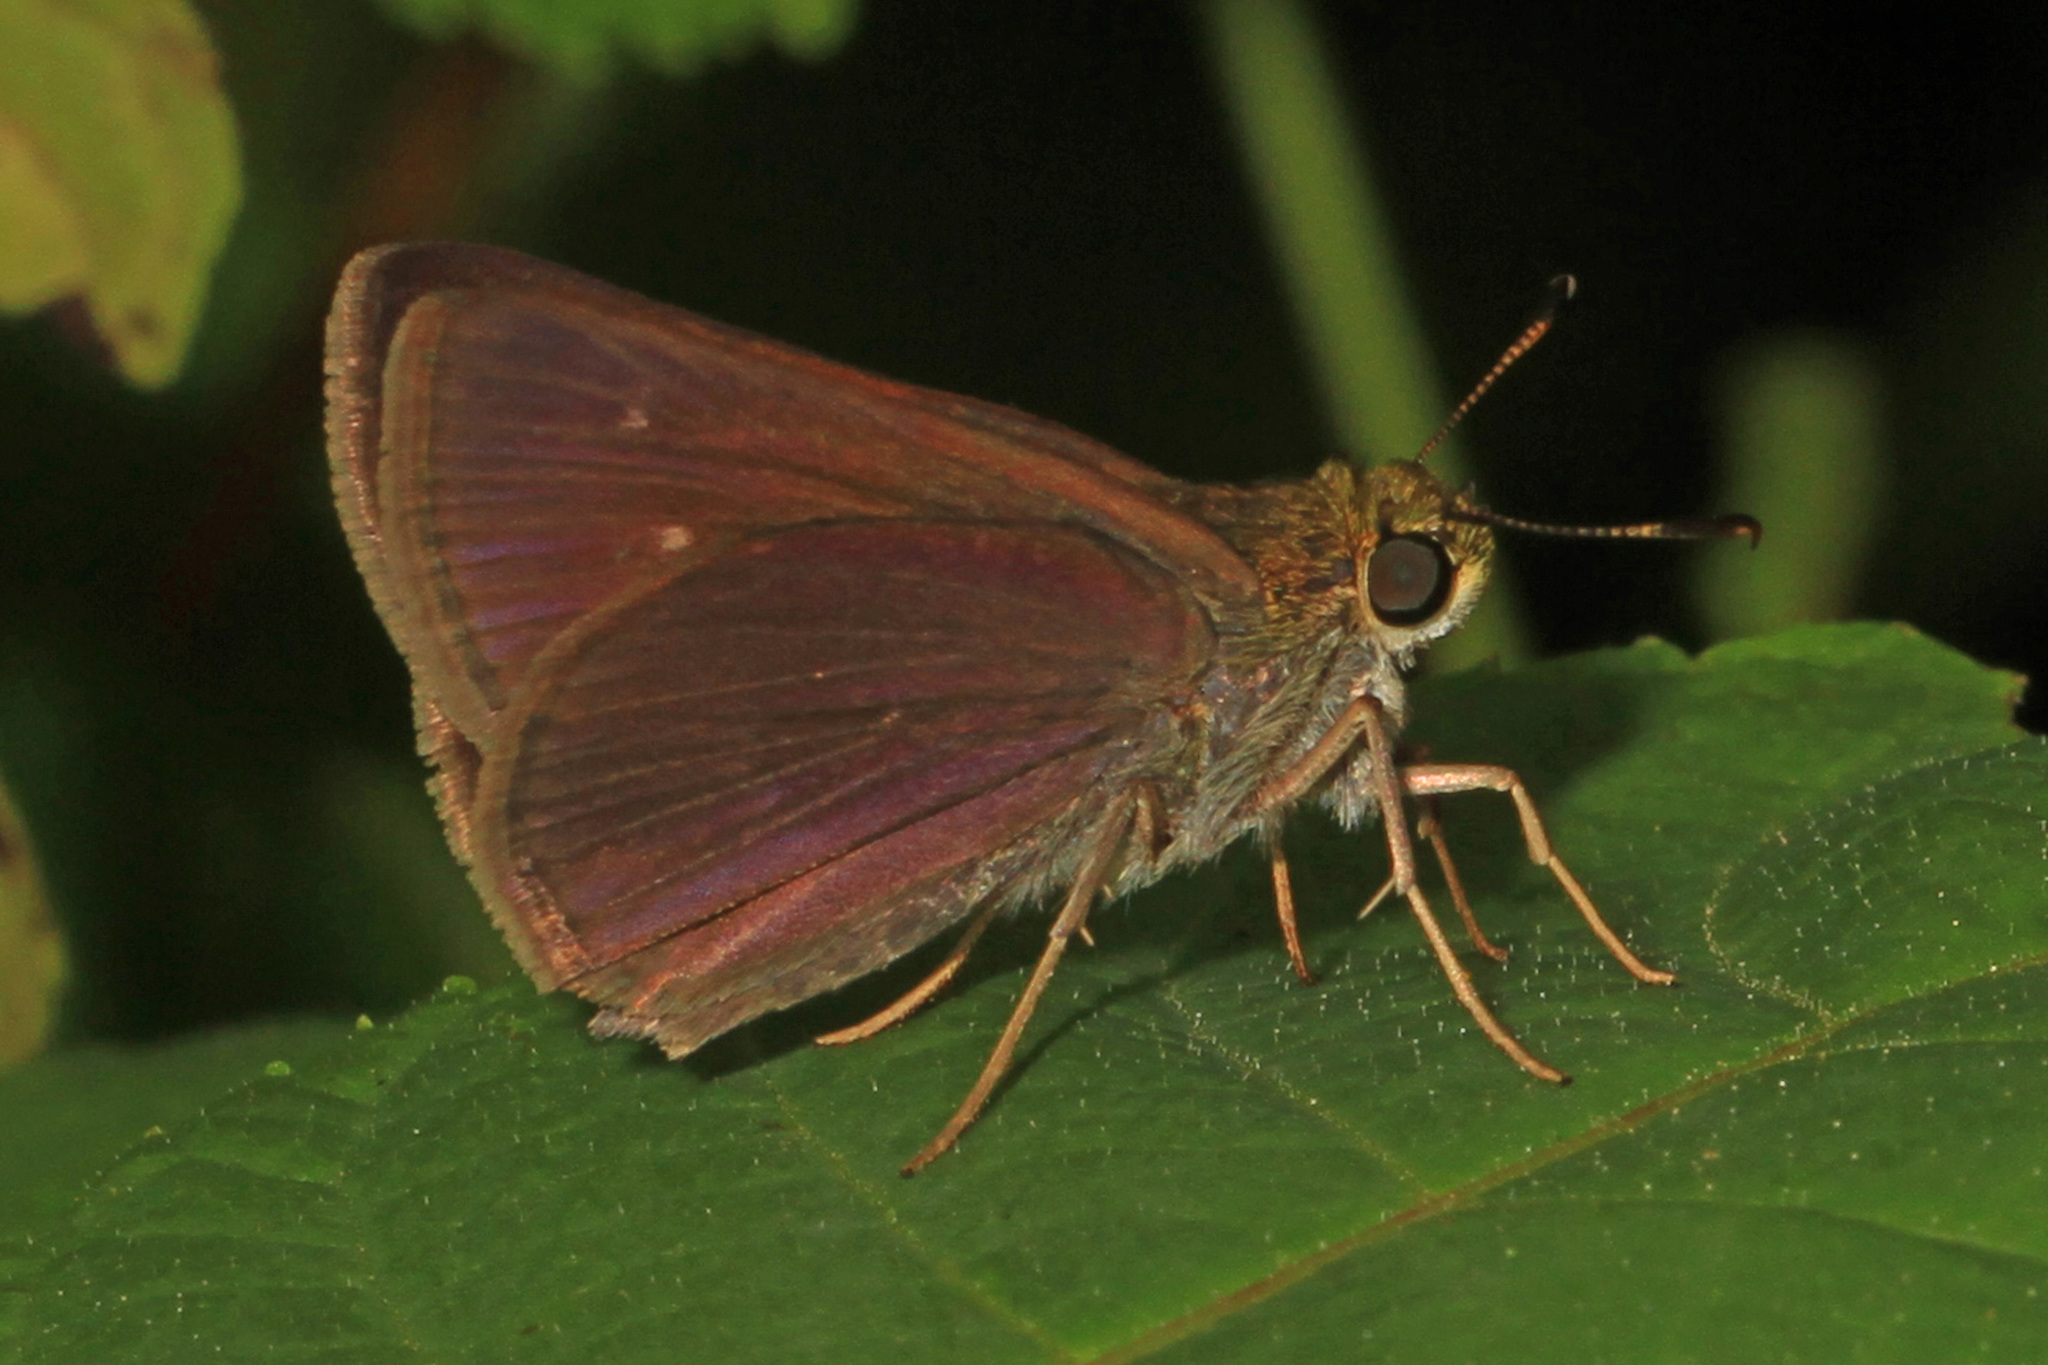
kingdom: Animalia
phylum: Arthropoda
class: Insecta
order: Lepidoptera
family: Hesperiidae
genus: Euphyes
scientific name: Euphyes vestris
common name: Dun skipper
